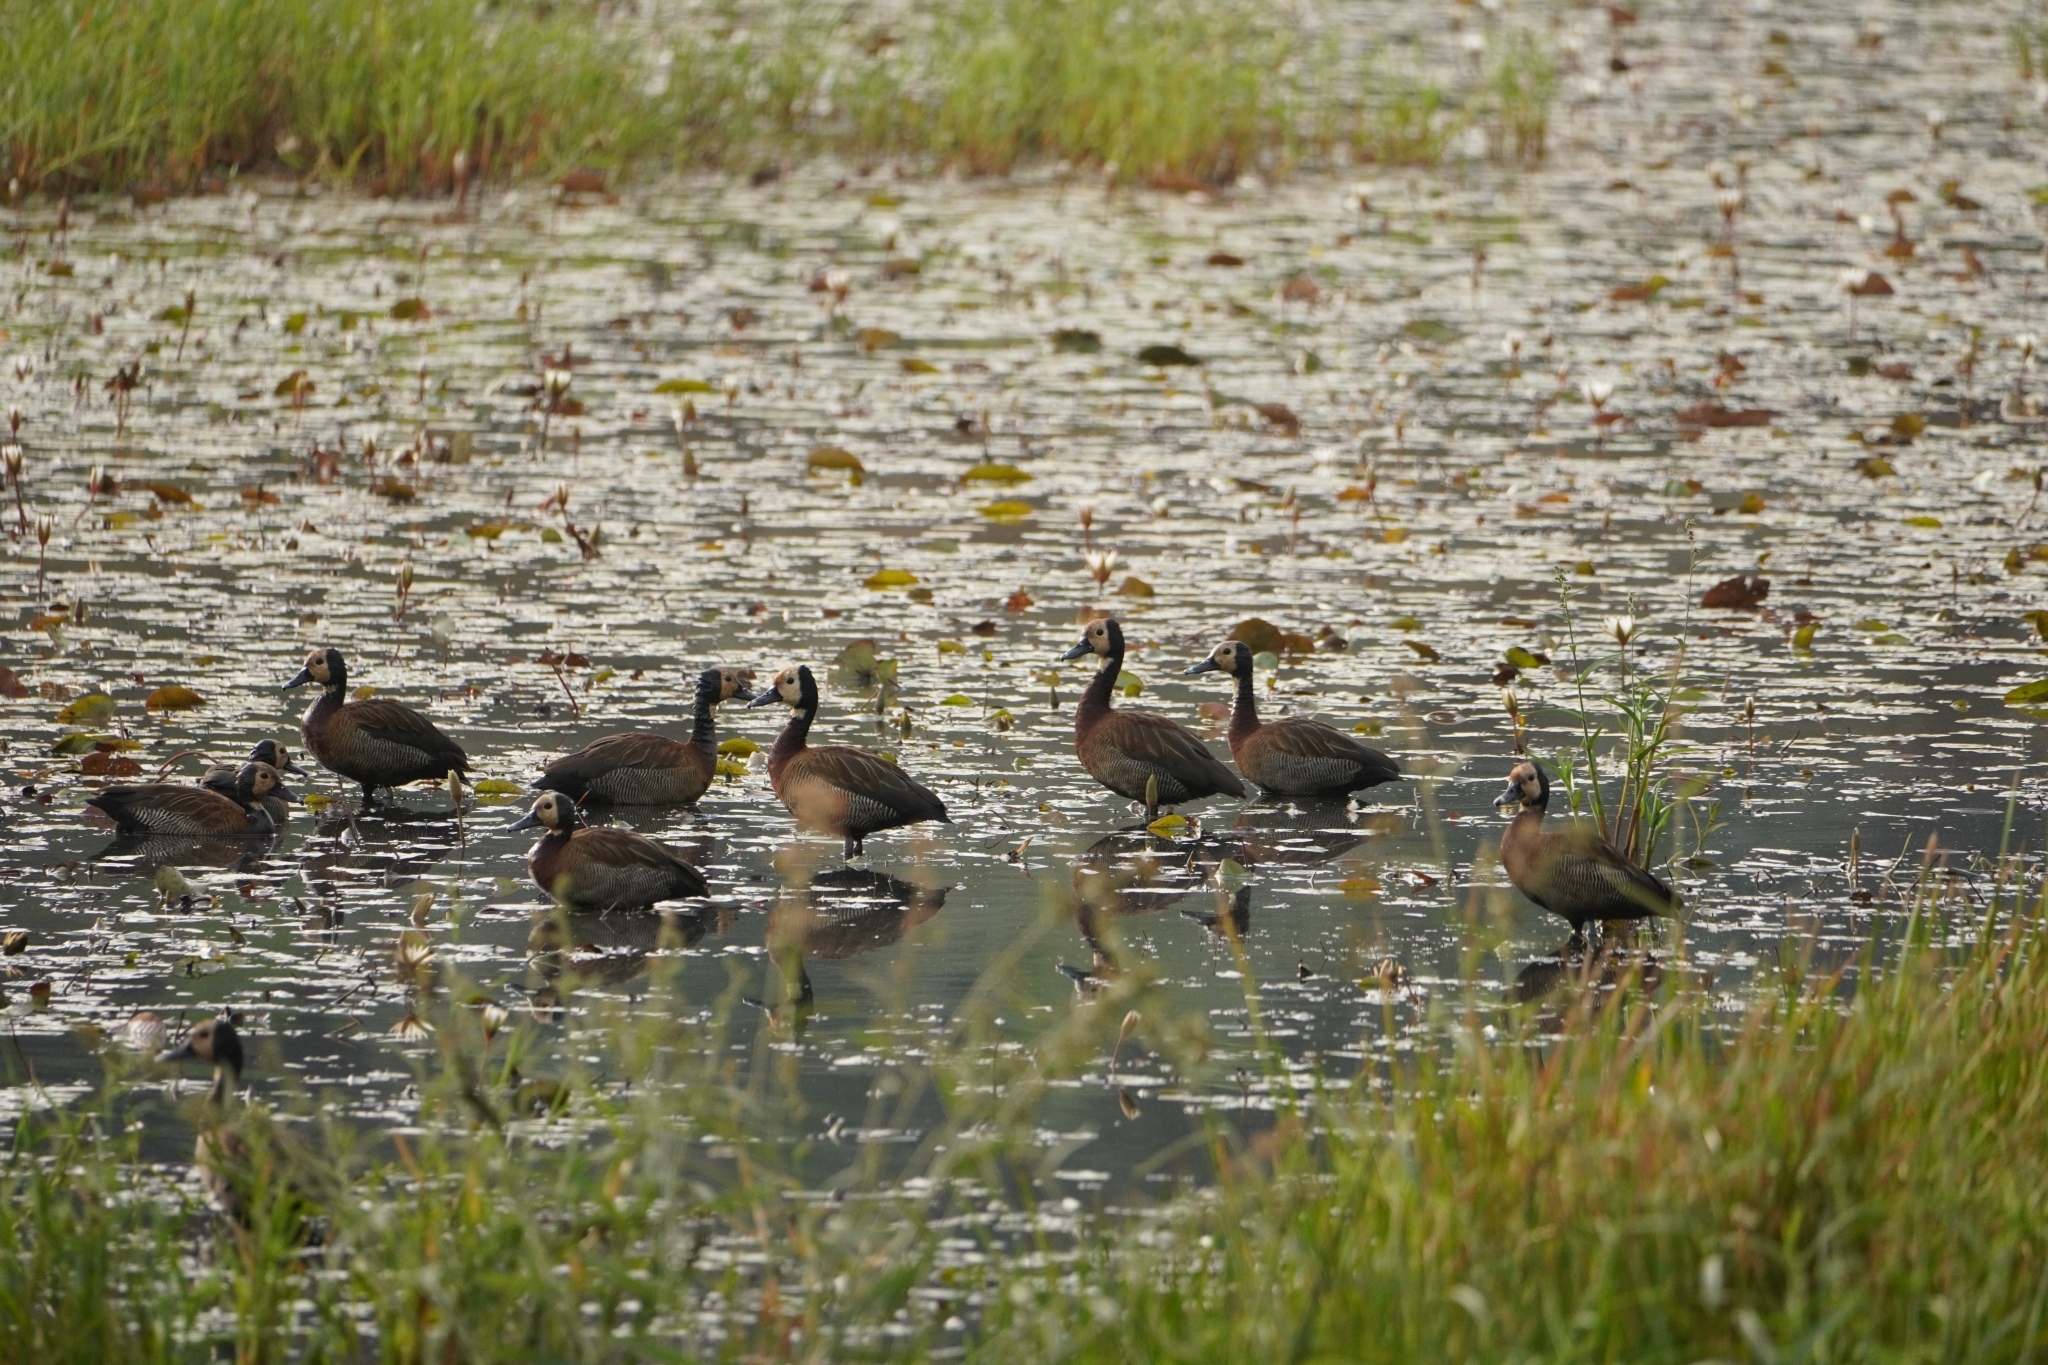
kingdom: Animalia
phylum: Chordata
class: Aves
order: Anseriformes
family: Anatidae
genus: Dendrocygna
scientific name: Dendrocygna viduata
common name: White-faced whistling duck
